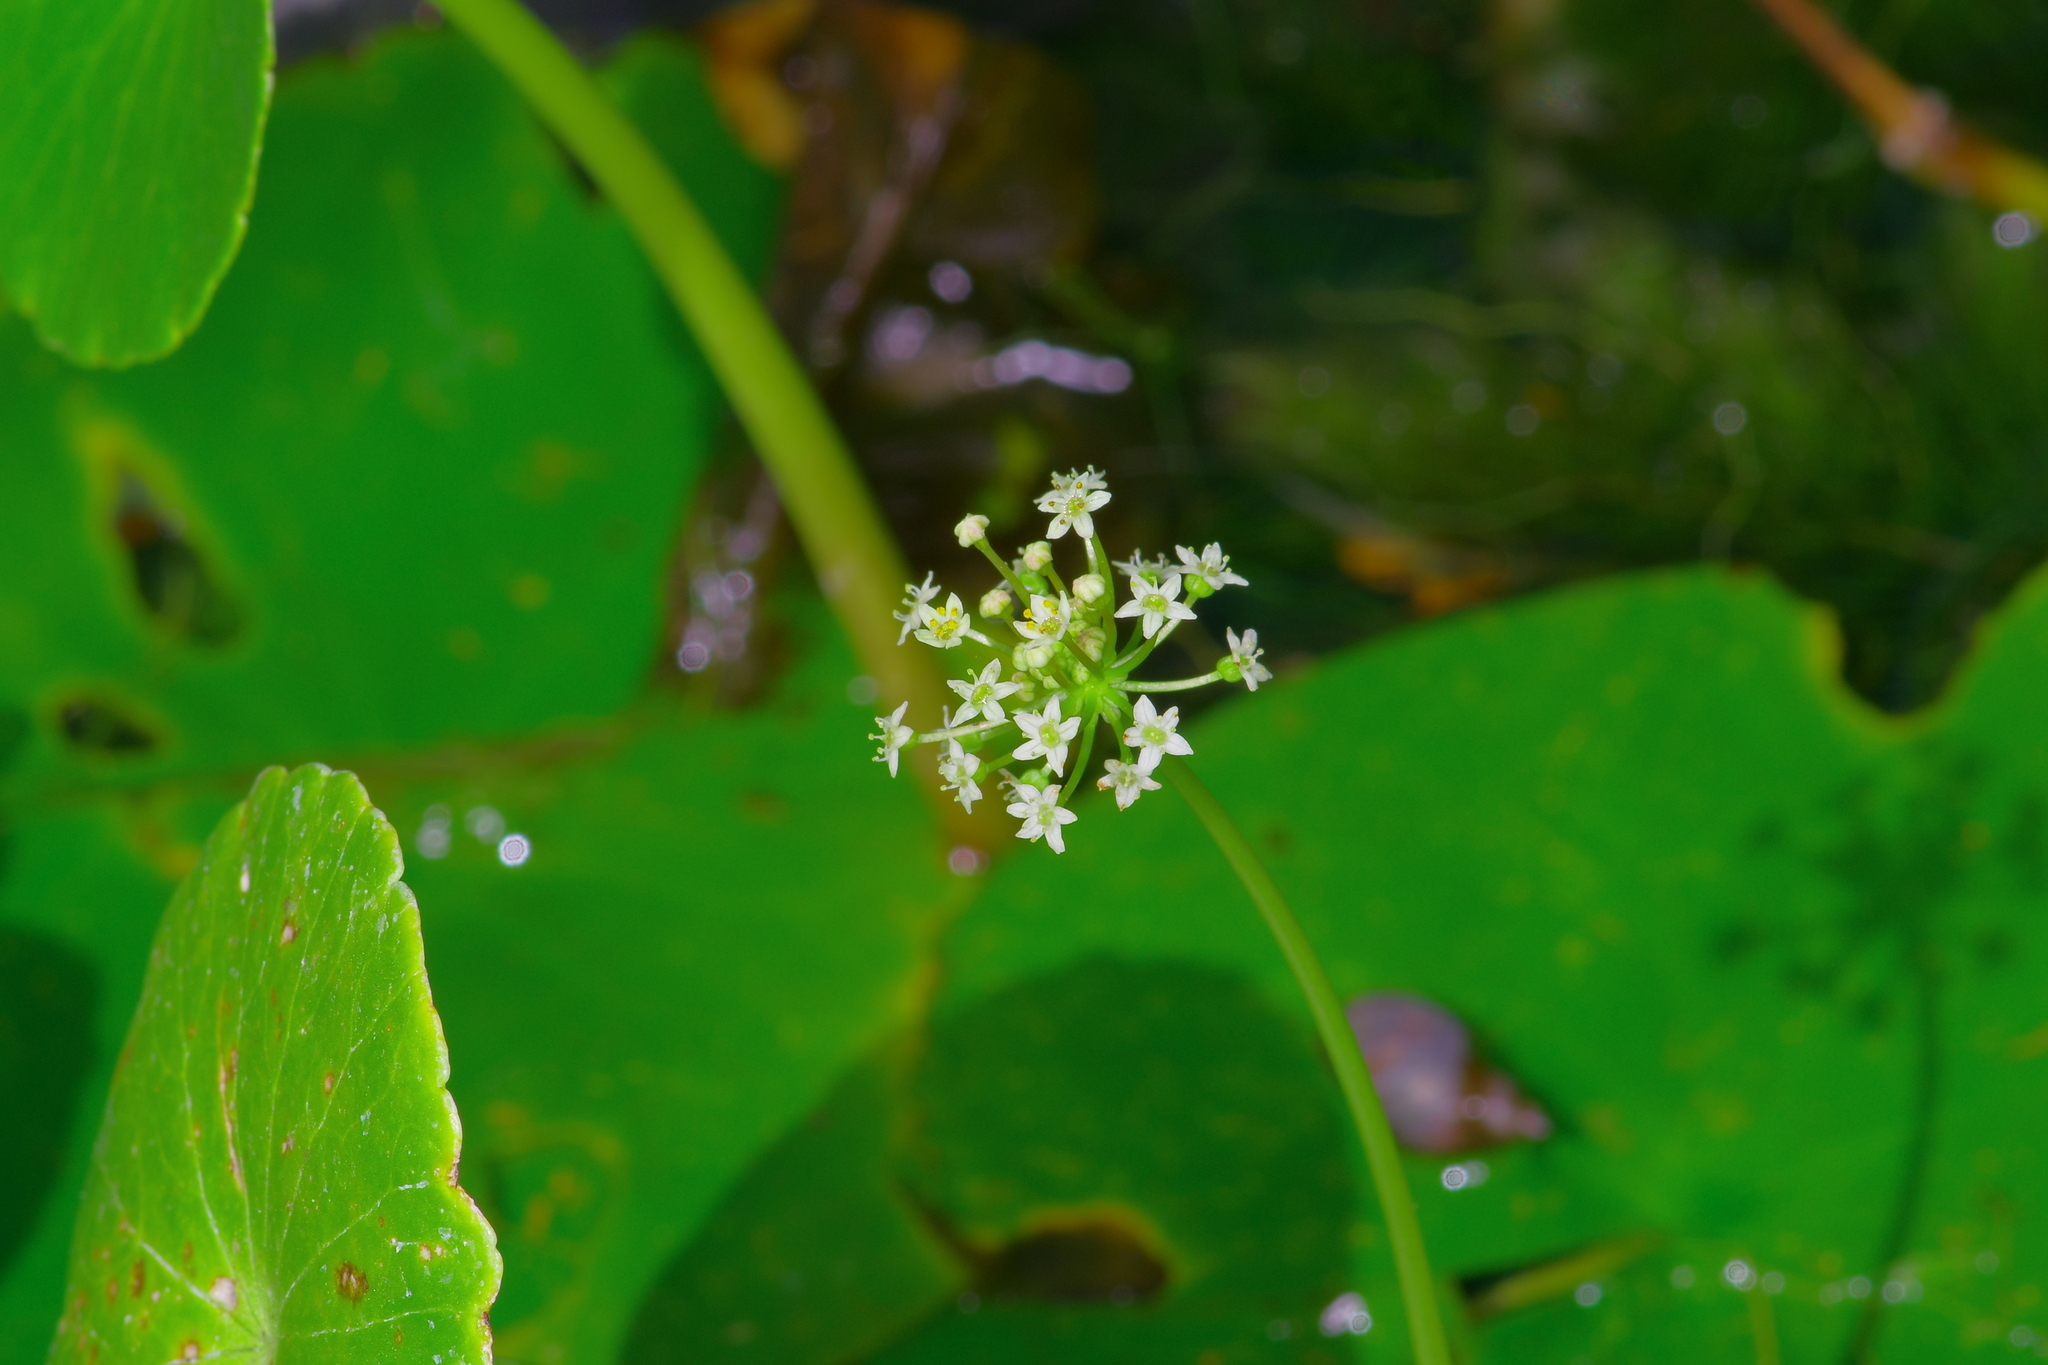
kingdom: Plantae
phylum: Tracheophyta
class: Magnoliopsida
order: Apiales
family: Araliaceae
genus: Hydrocotyle
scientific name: Hydrocotyle umbellata
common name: Water pennywort
